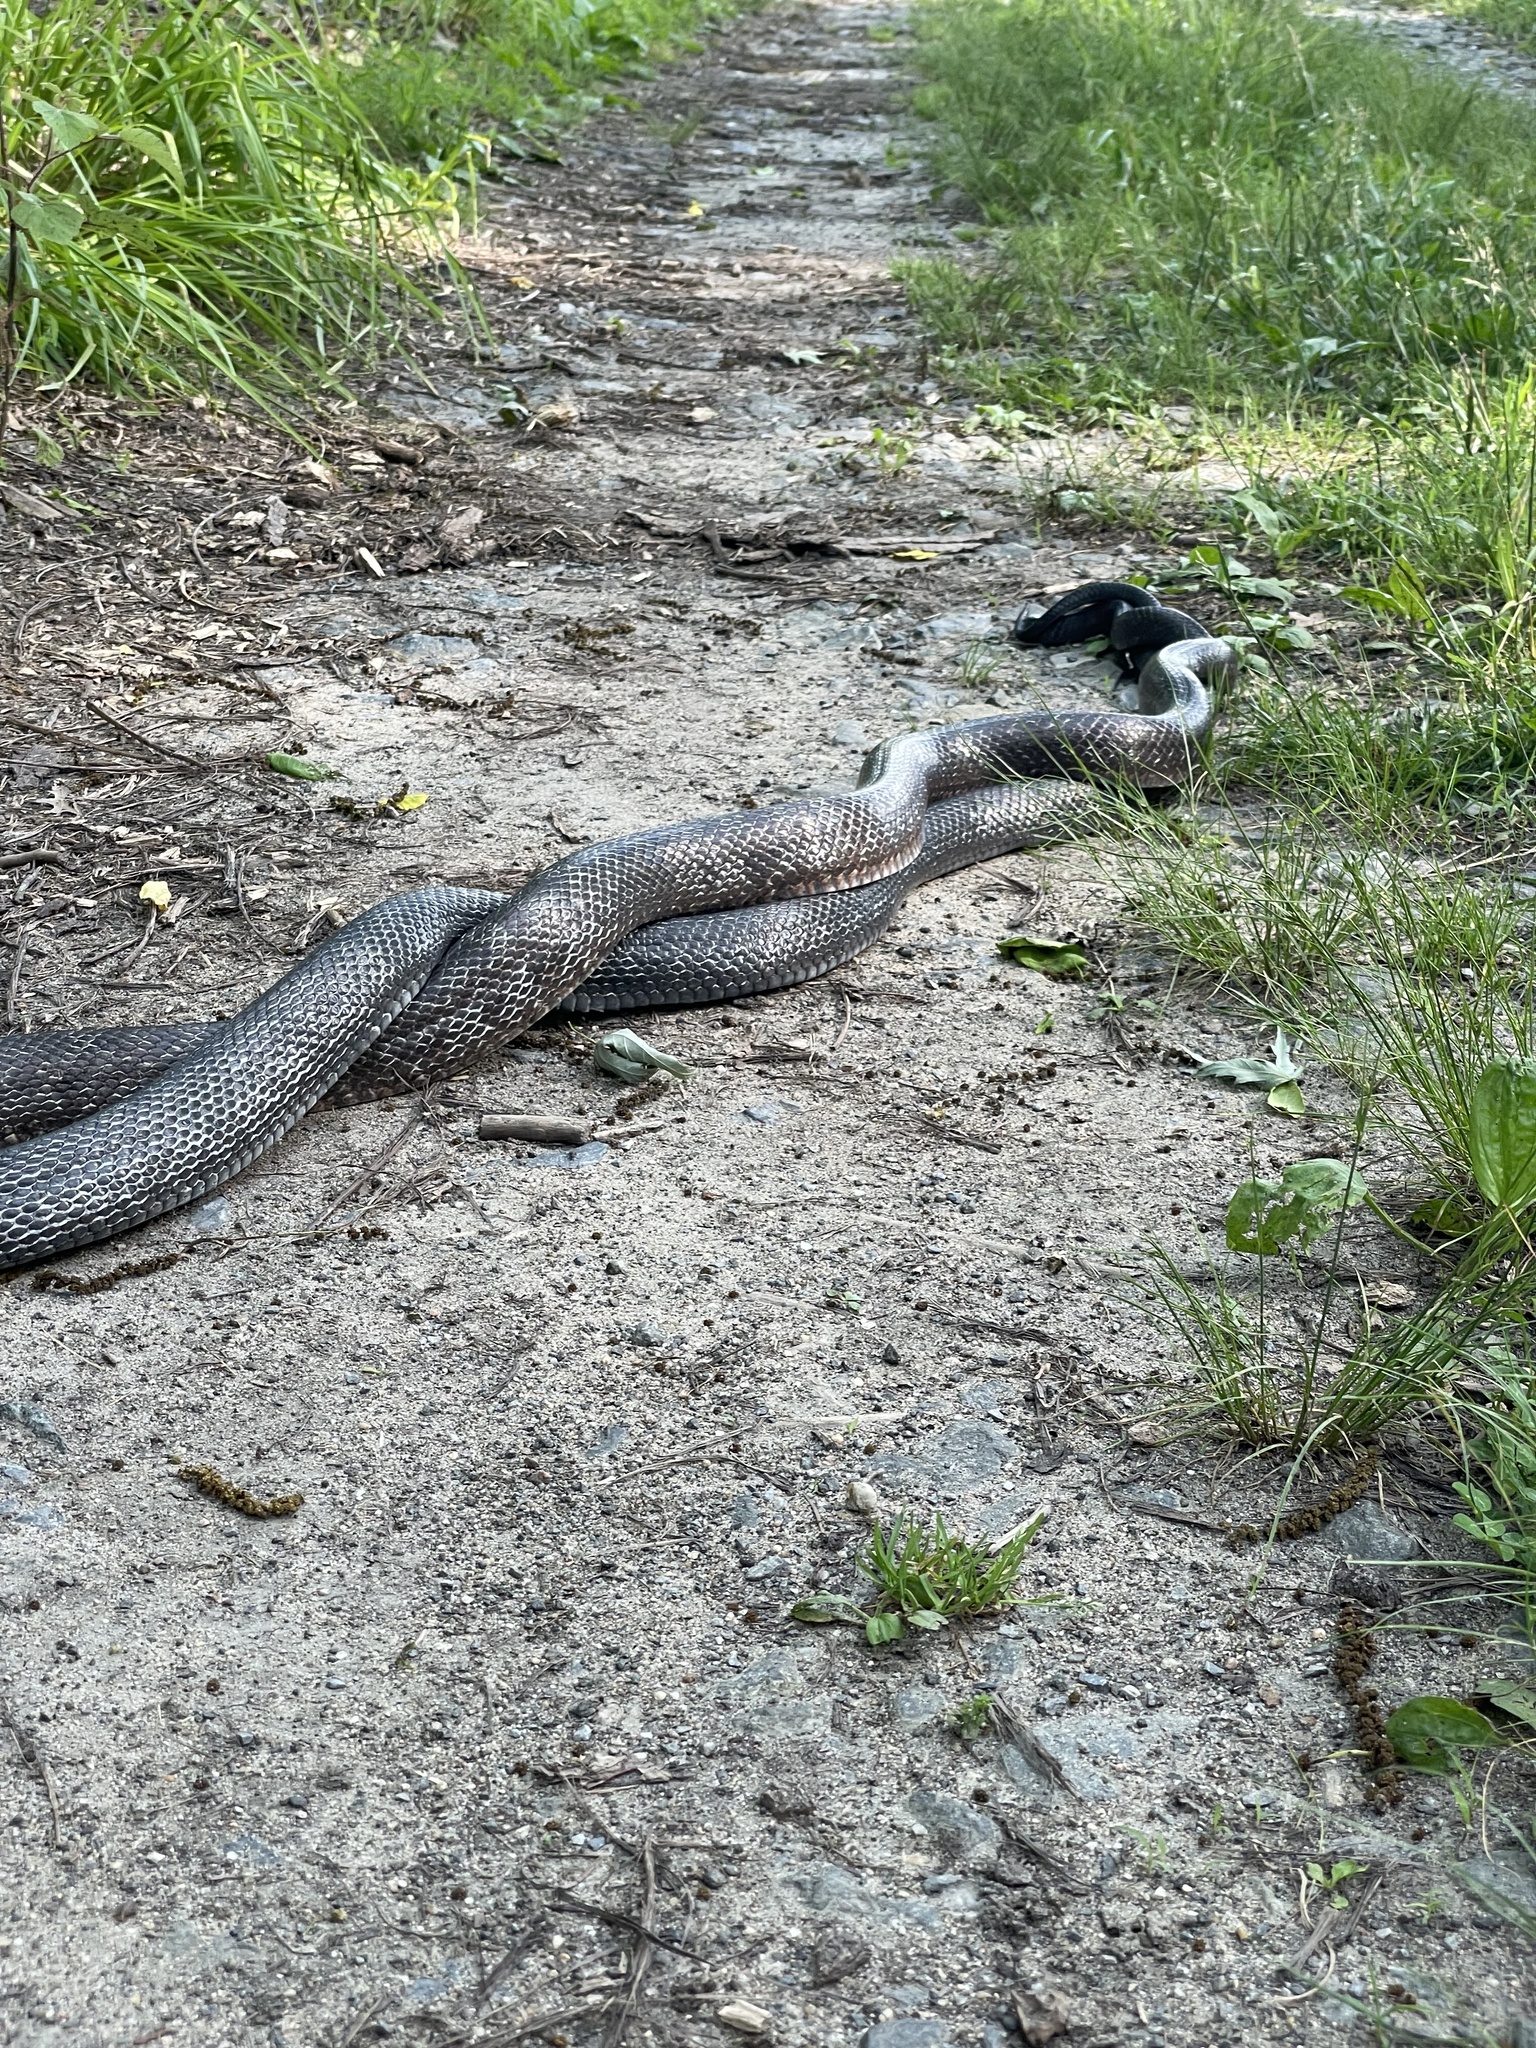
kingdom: Animalia
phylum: Chordata
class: Squamata
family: Colubridae
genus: Pantherophis
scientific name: Pantherophis alleghaniensis
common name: Eastern rat snake
